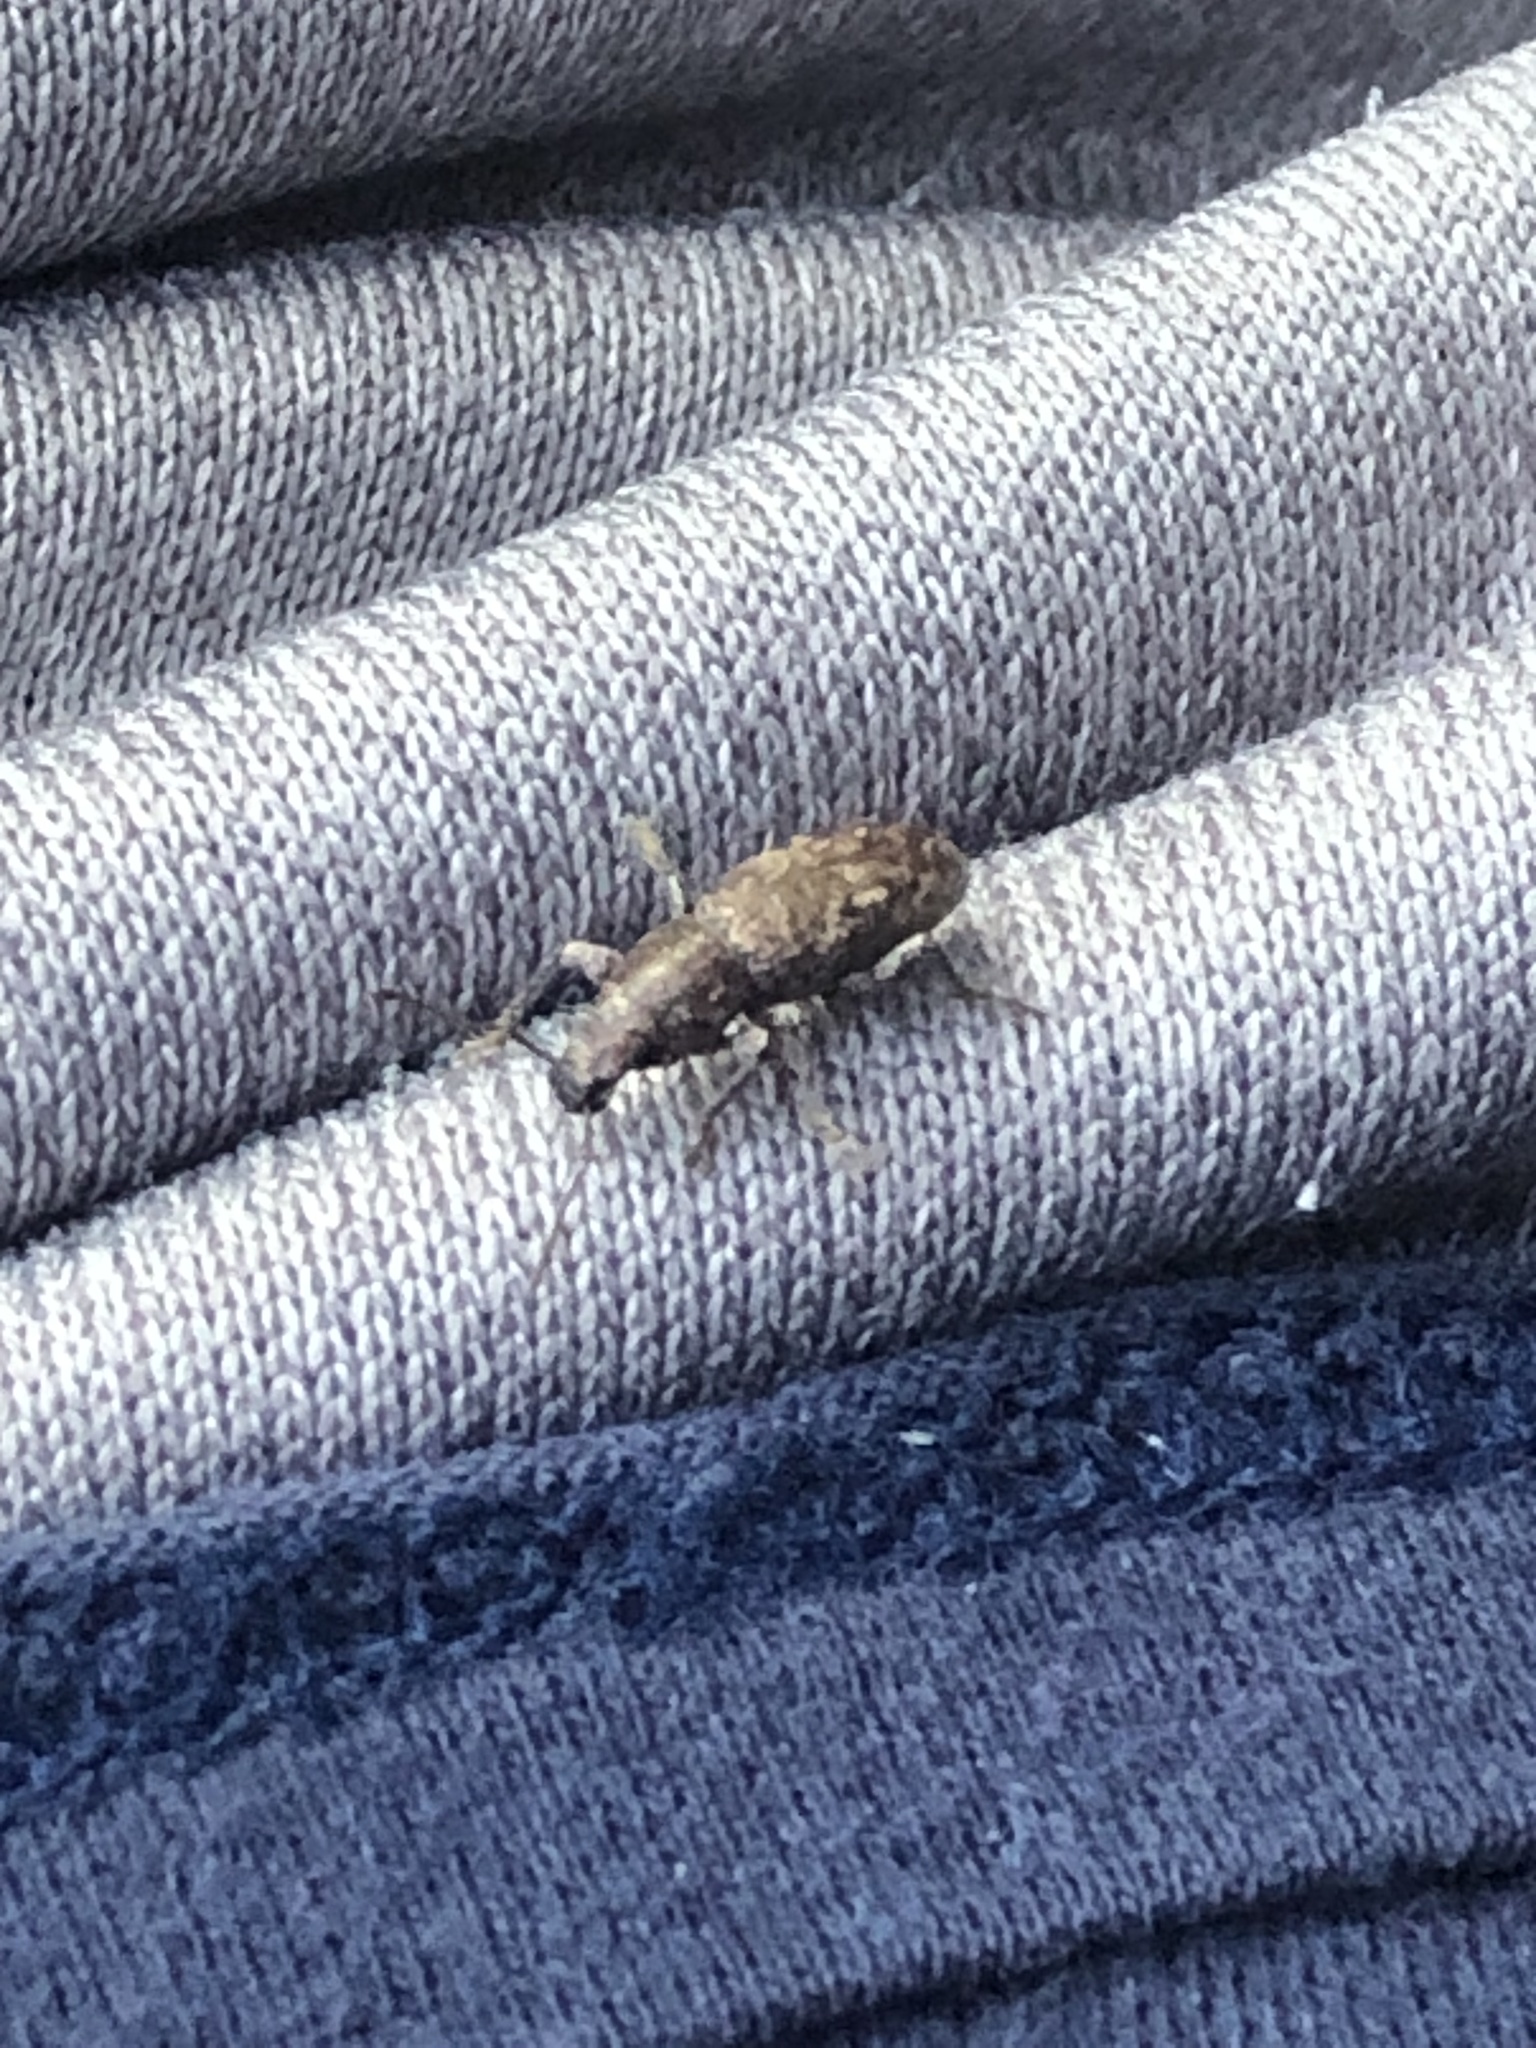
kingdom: Animalia
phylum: Arthropoda
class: Insecta
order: Coleoptera
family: Curculionidae
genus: Orimodema
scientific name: Orimodema protracta
